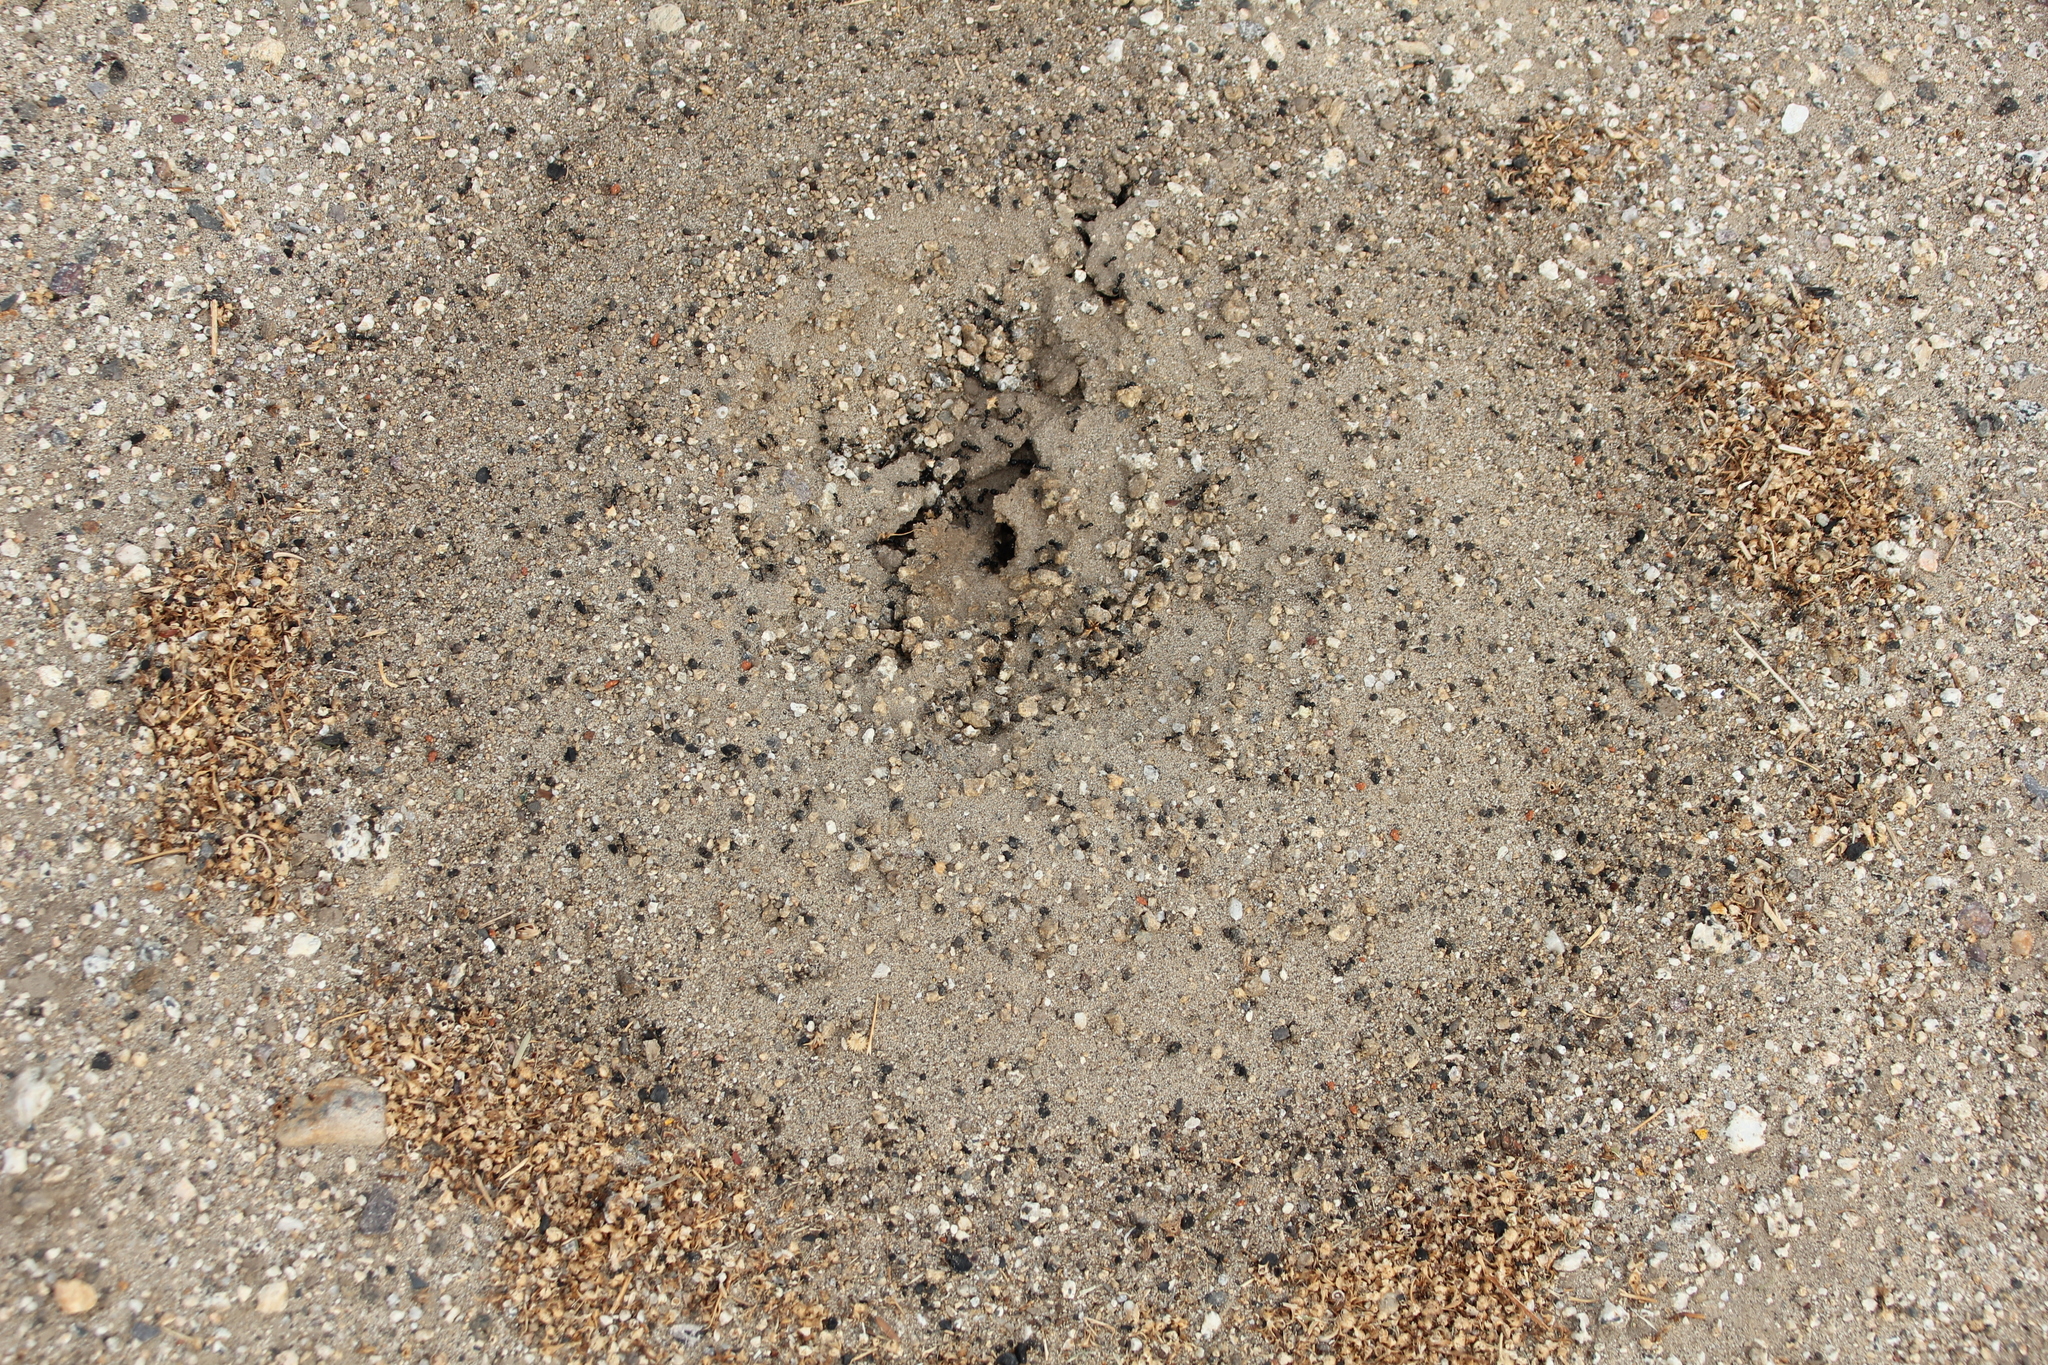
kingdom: Animalia
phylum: Arthropoda
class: Insecta
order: Hymenoptera
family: Formicidae
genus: Messor
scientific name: Messor pergandei
